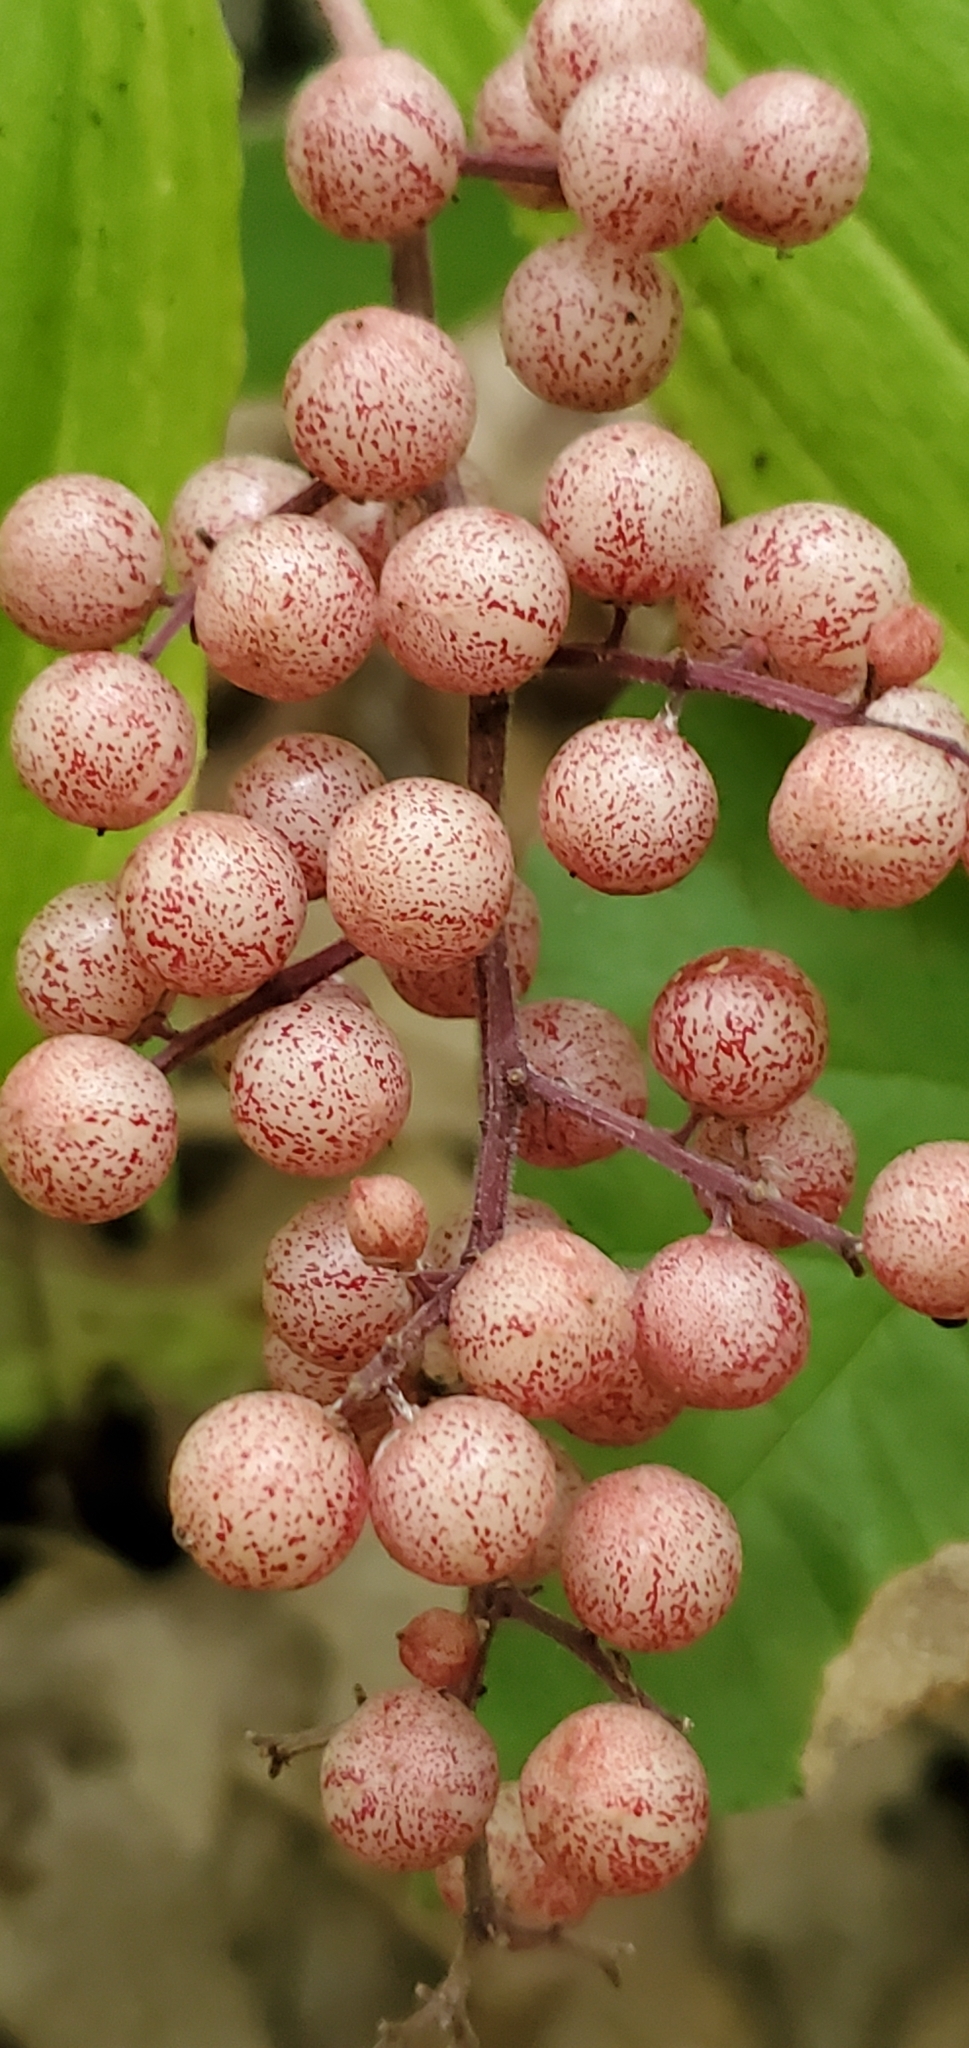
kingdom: Plantae
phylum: Tracheophyta
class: Liliopsida
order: Asparagales
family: Asparagaceae
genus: Maianthemum
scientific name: Maianthemum racemosum
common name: False spikenard
